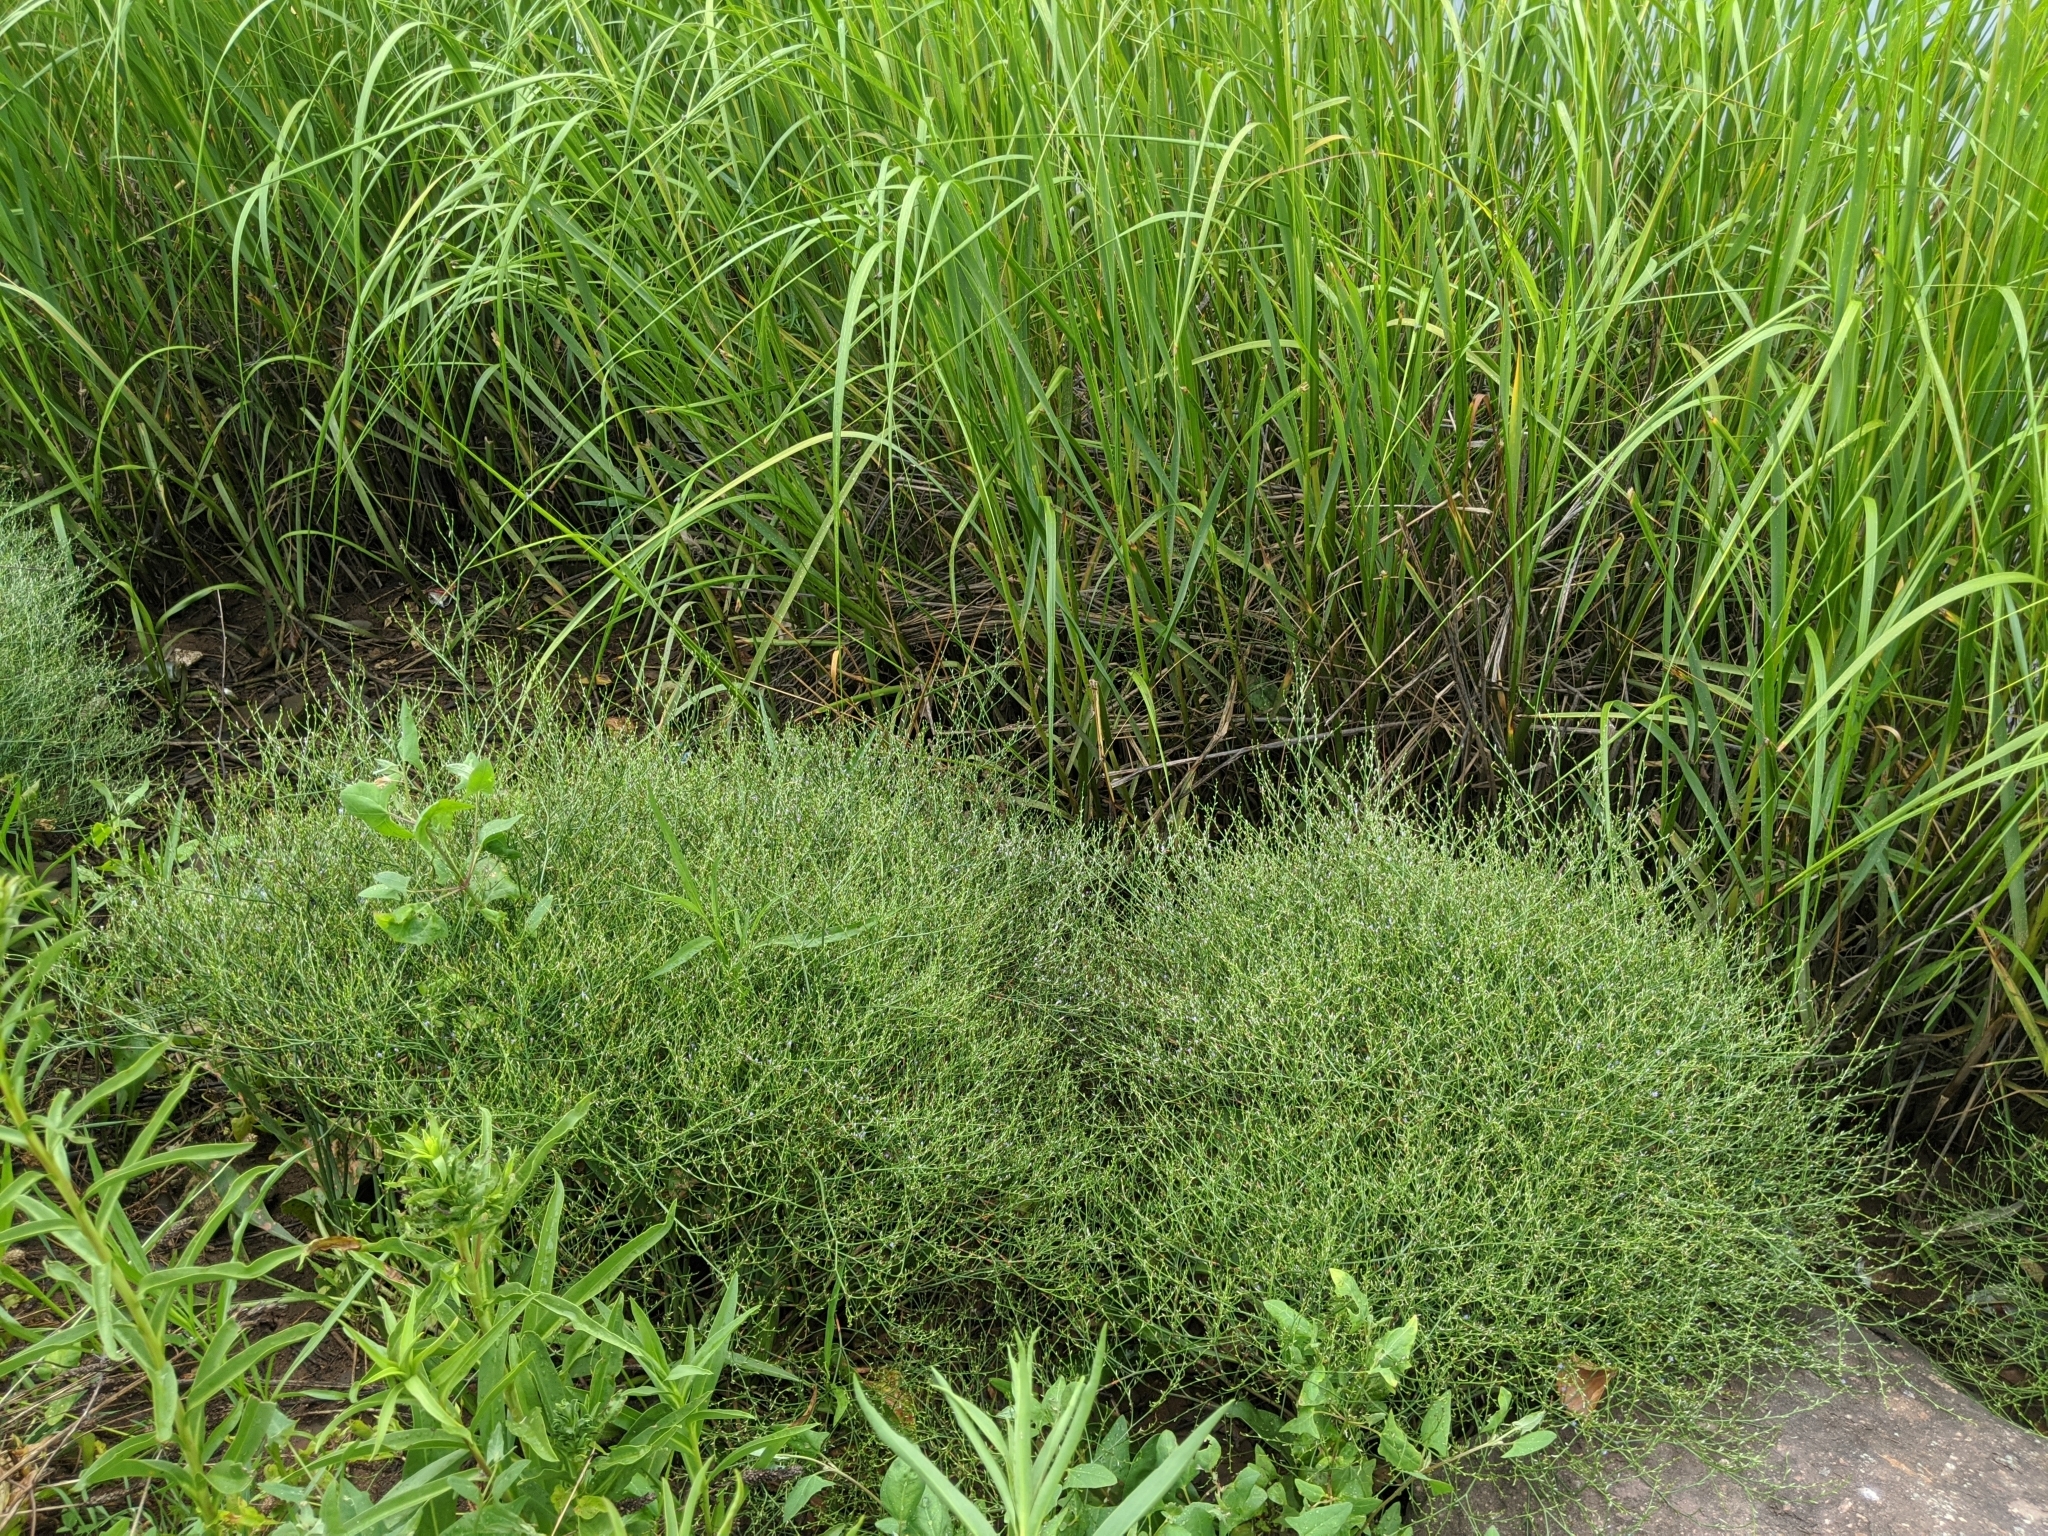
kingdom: Plantae
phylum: Tracheophyta
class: Magnoliopsida
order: Caryophyllales
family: Plumbaginaceae
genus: Limonium
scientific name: Limonium carolinianum
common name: Carolina sea lavender
